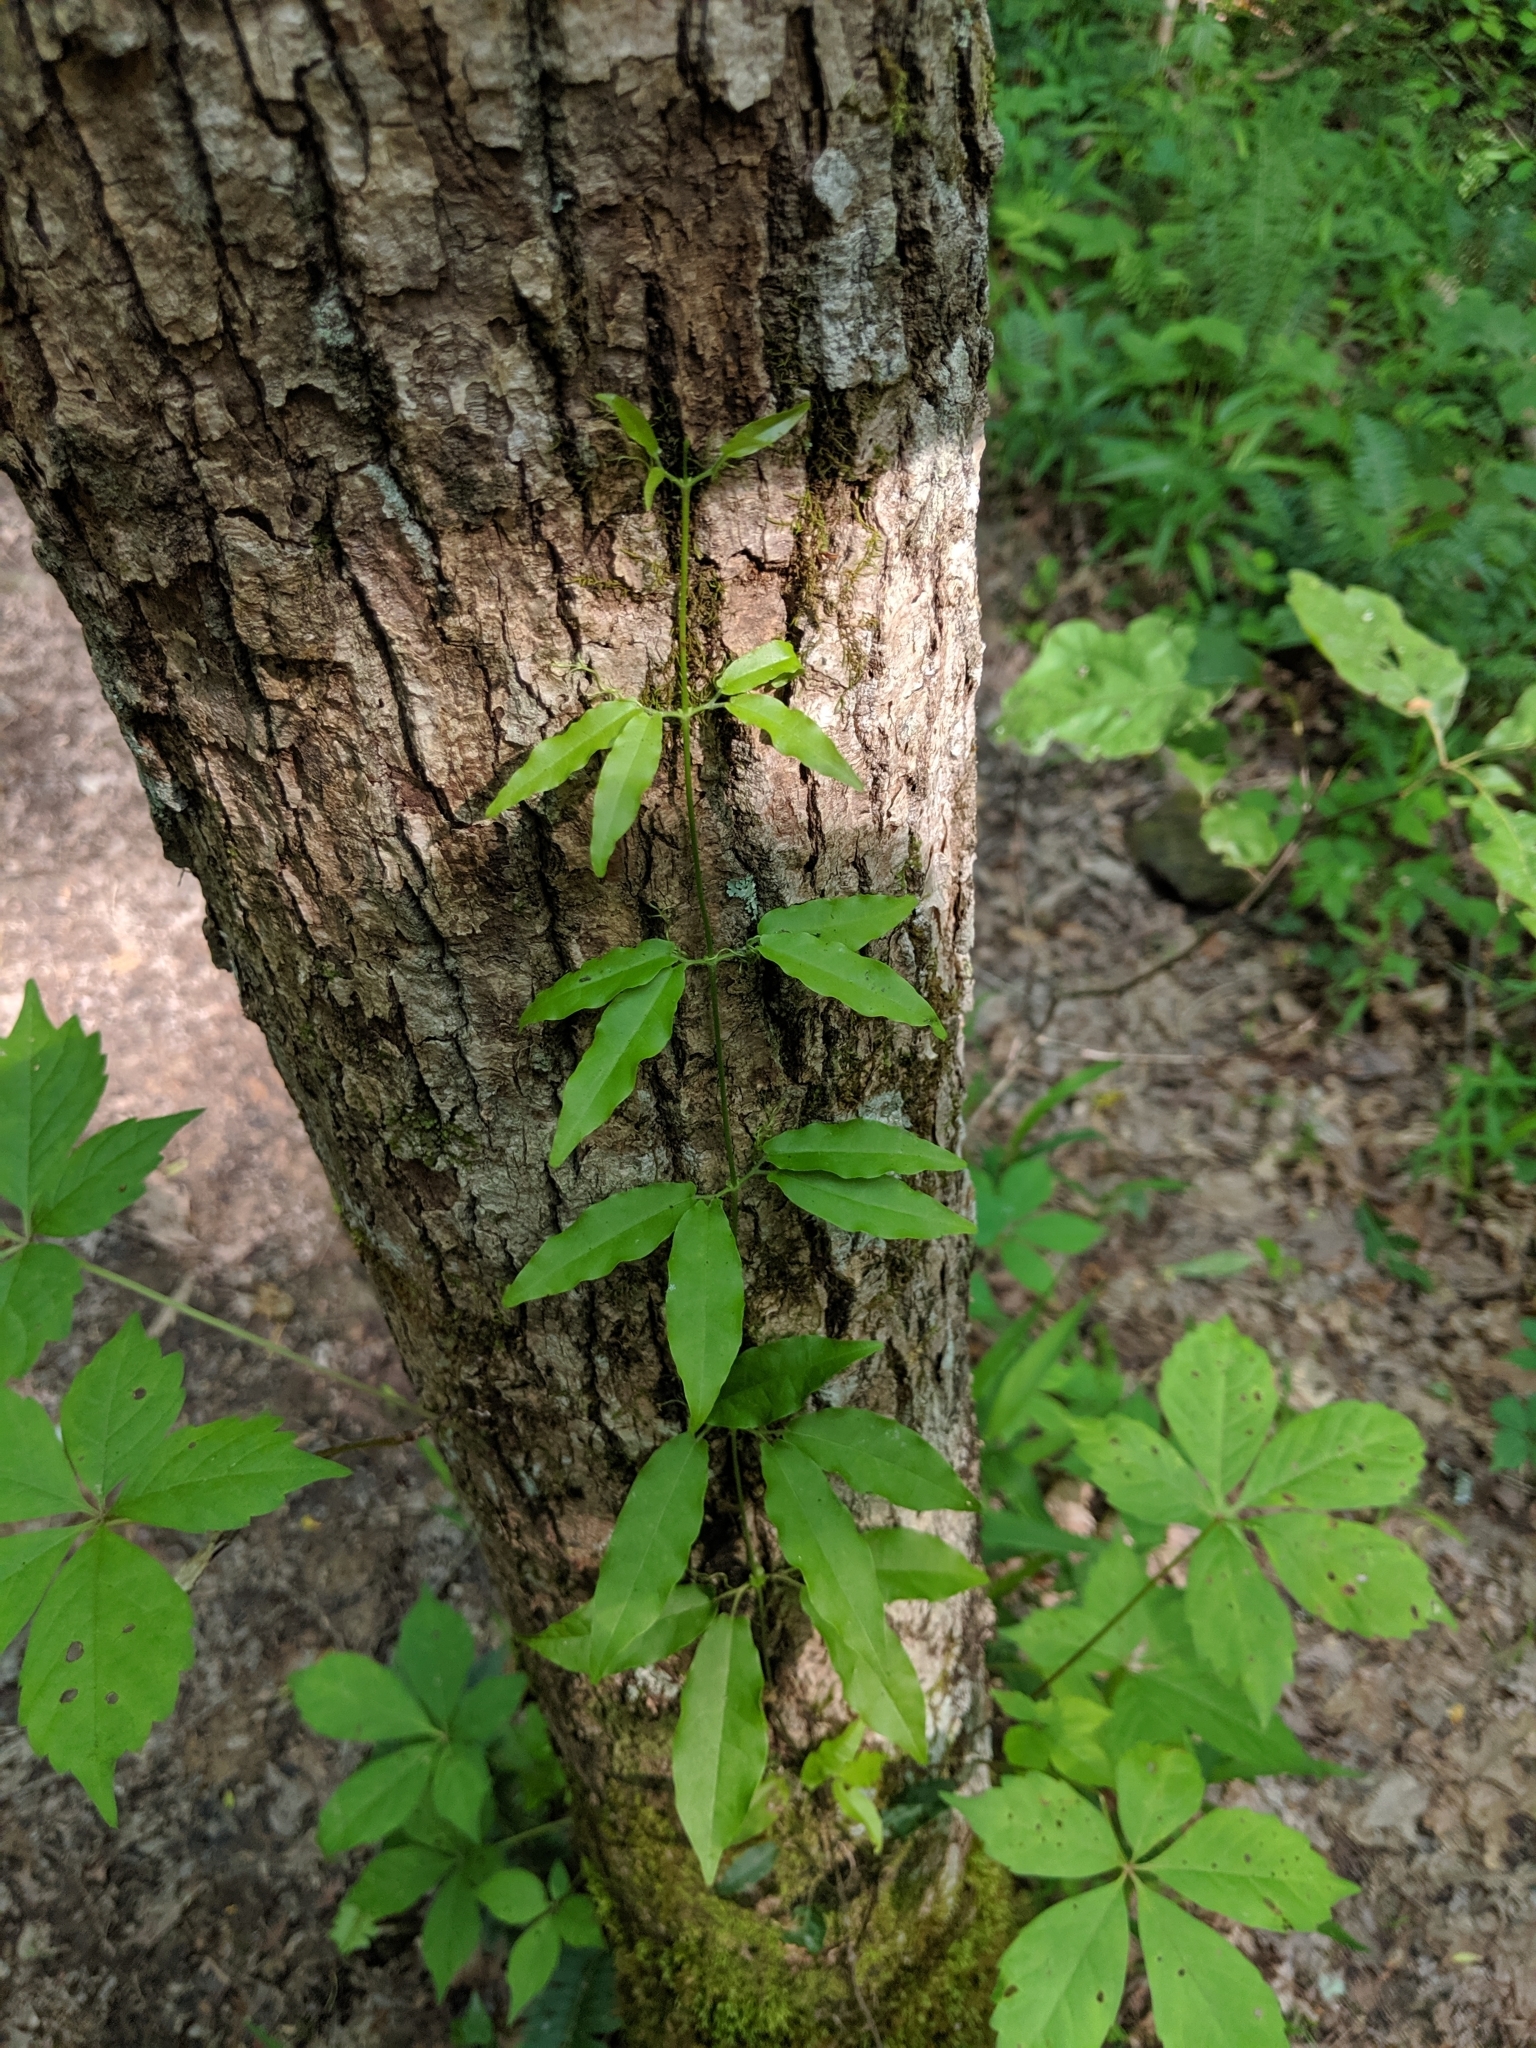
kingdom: Plantae
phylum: Tracheophyta
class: Magnoliopsida
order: Lamiales
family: Bignoniaceae
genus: Bignonia
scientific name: Bignonia capreolata
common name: Crossvine
